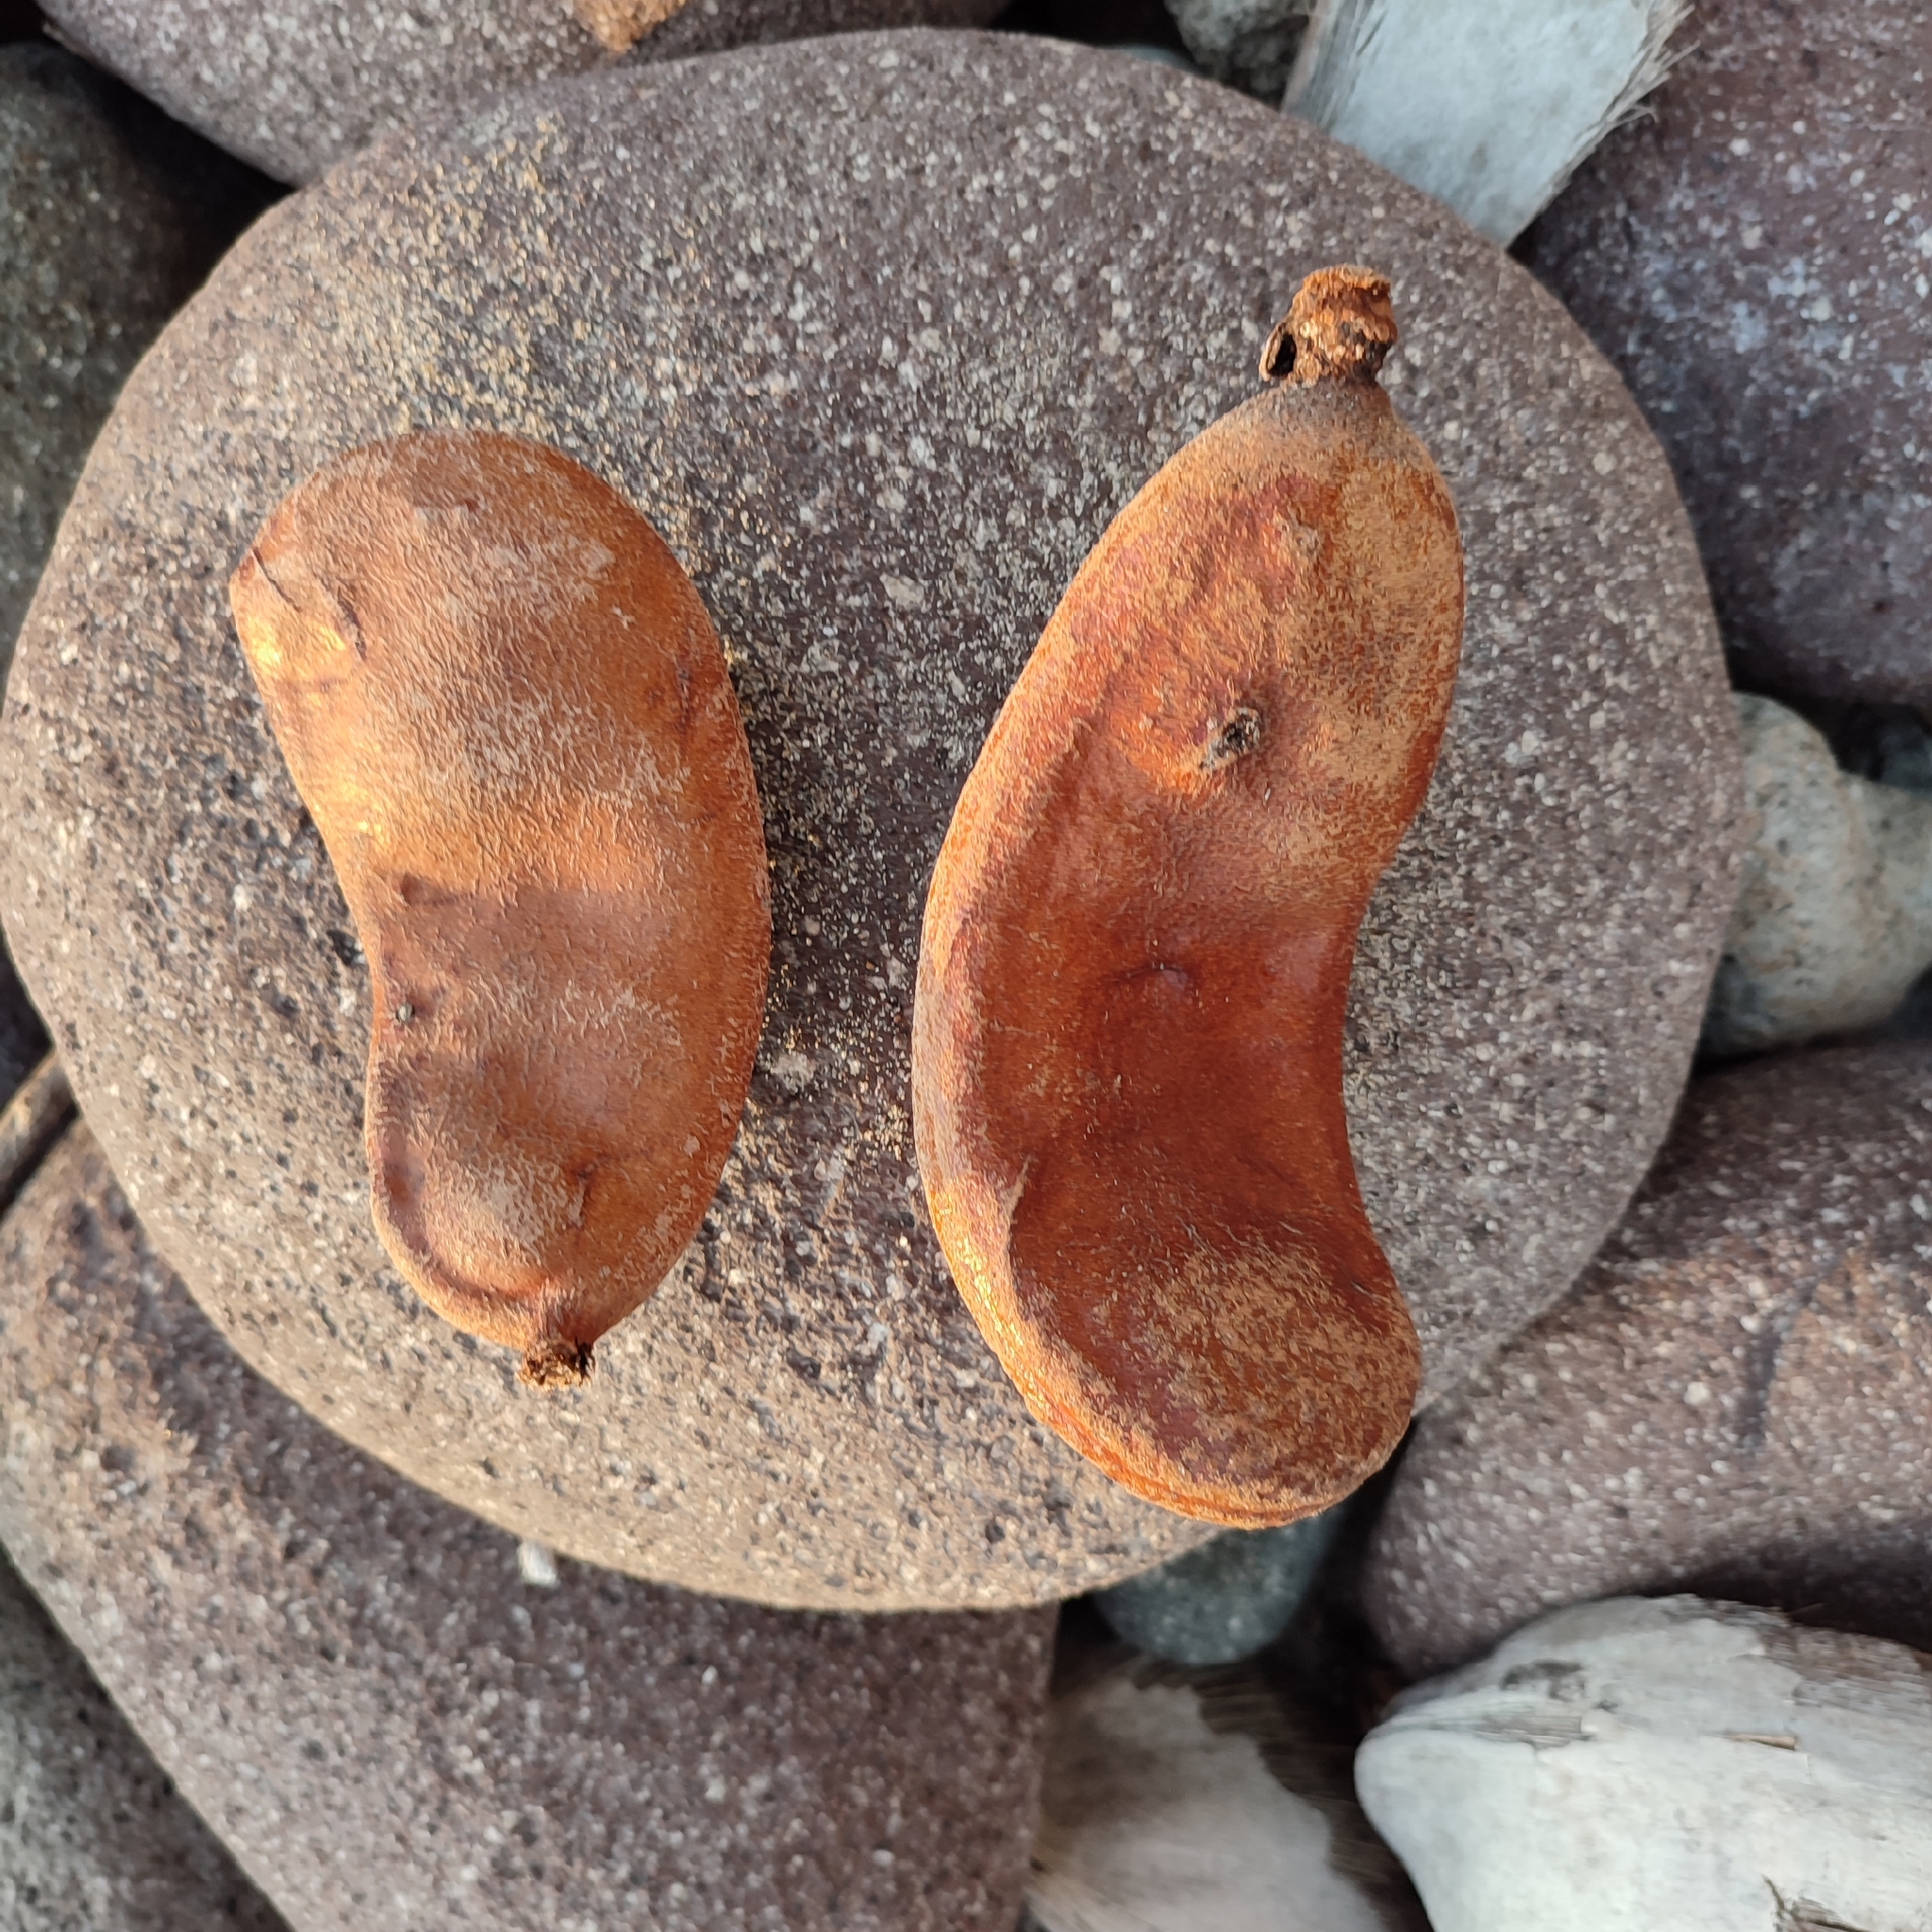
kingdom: Plantae
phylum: Tracheophyta
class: Magnoliopsida
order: Fabales
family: Fabaceae
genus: Hymenaea
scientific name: Hymenaea courbaril
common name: Brazilian copal
